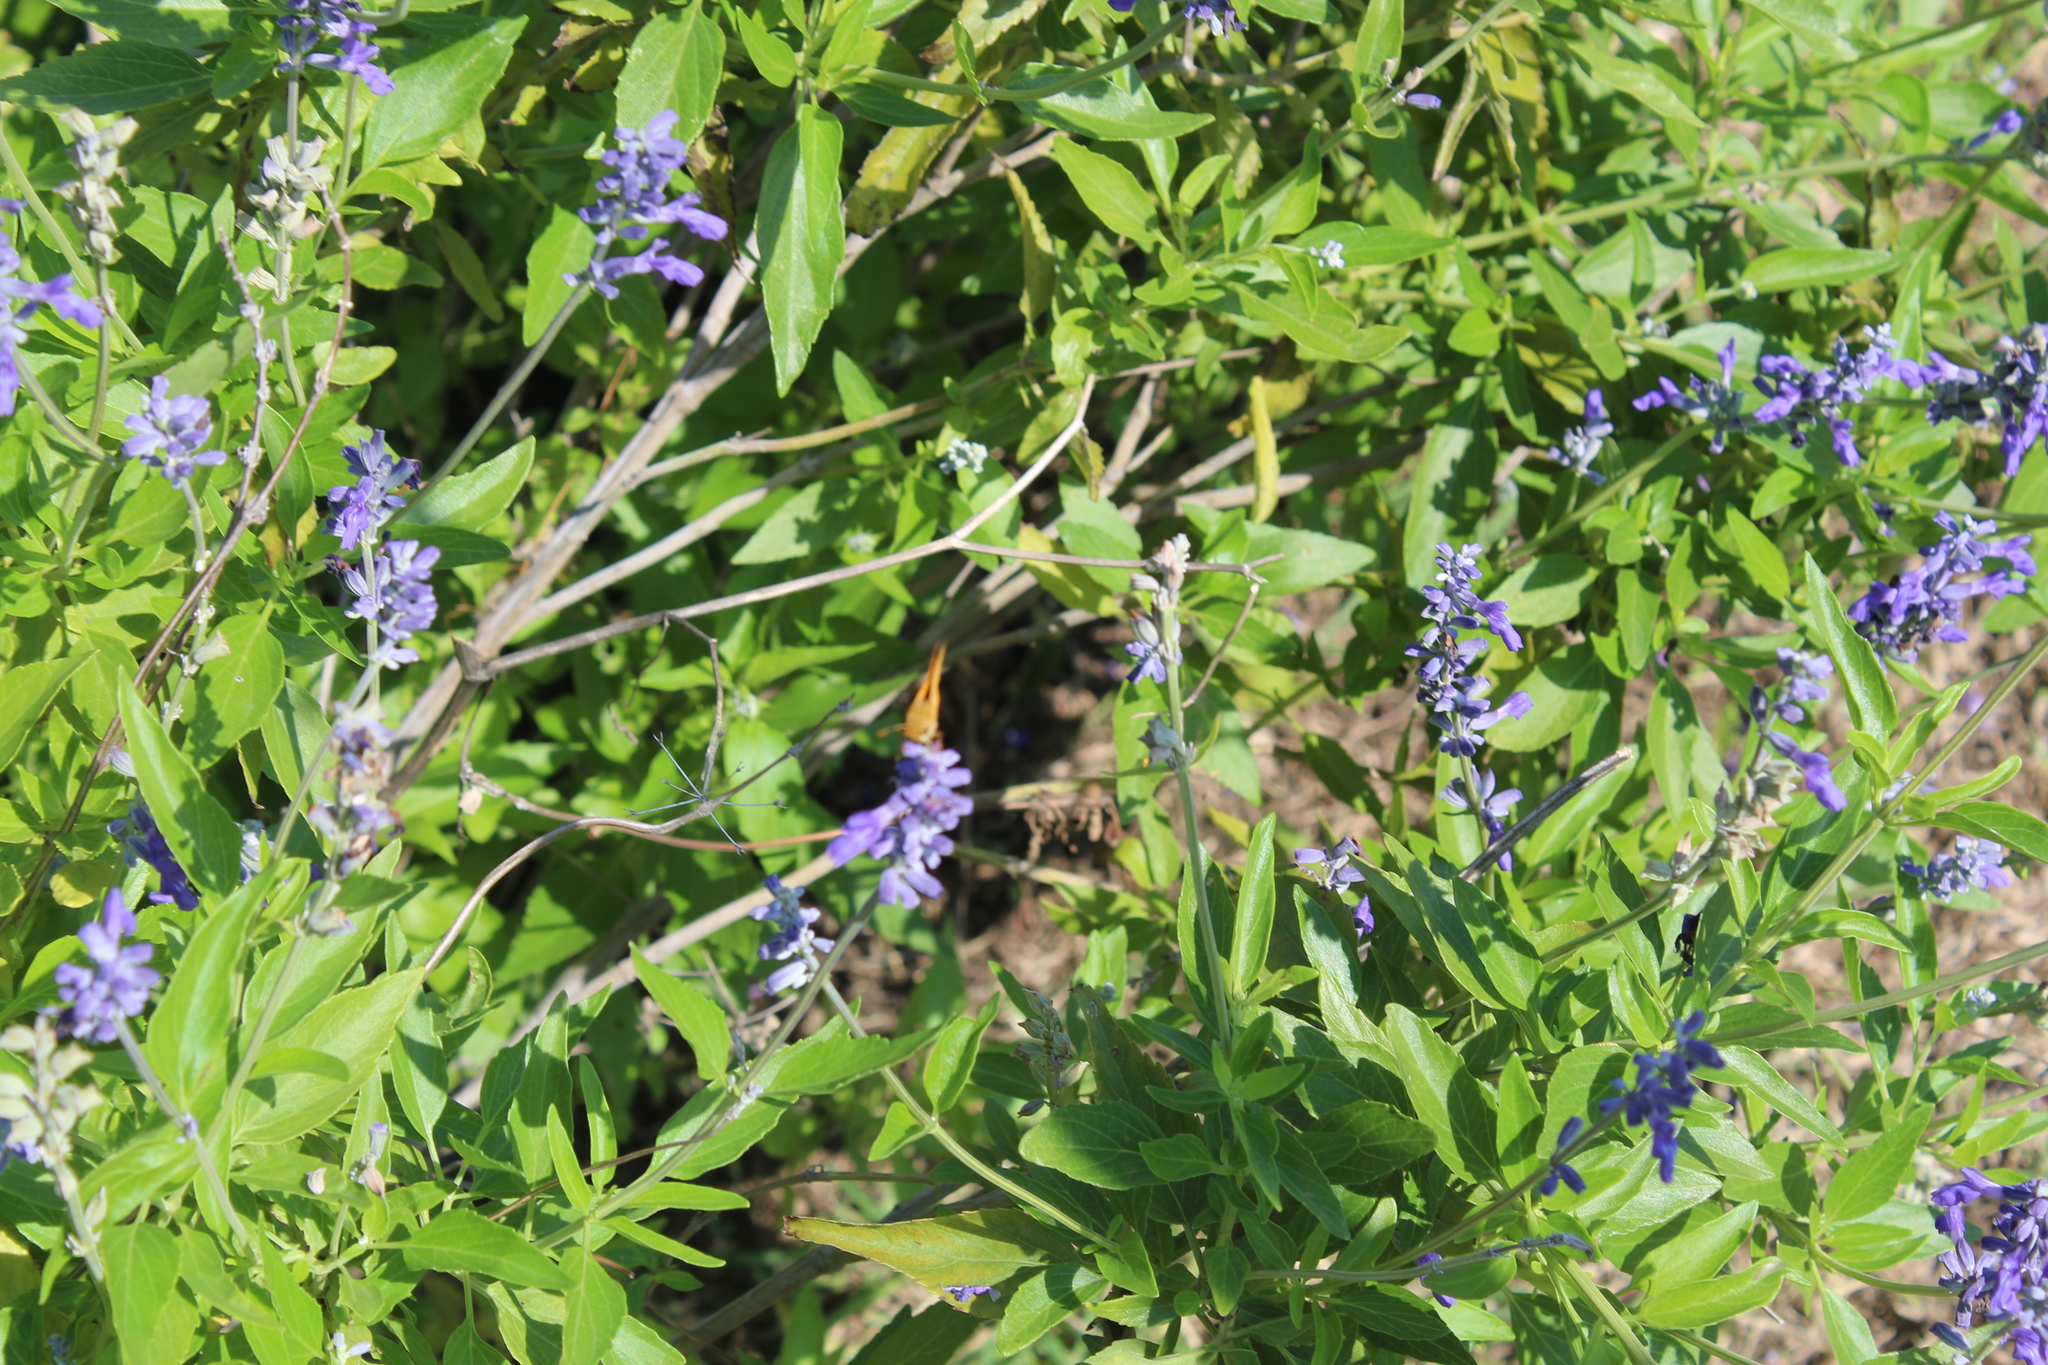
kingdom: Animalia
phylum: Arthropoda
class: Insecta
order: Lepidoptera
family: Hesperiidae
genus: Hylephila
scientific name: Hylephila phyleus
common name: Fiery skipper
